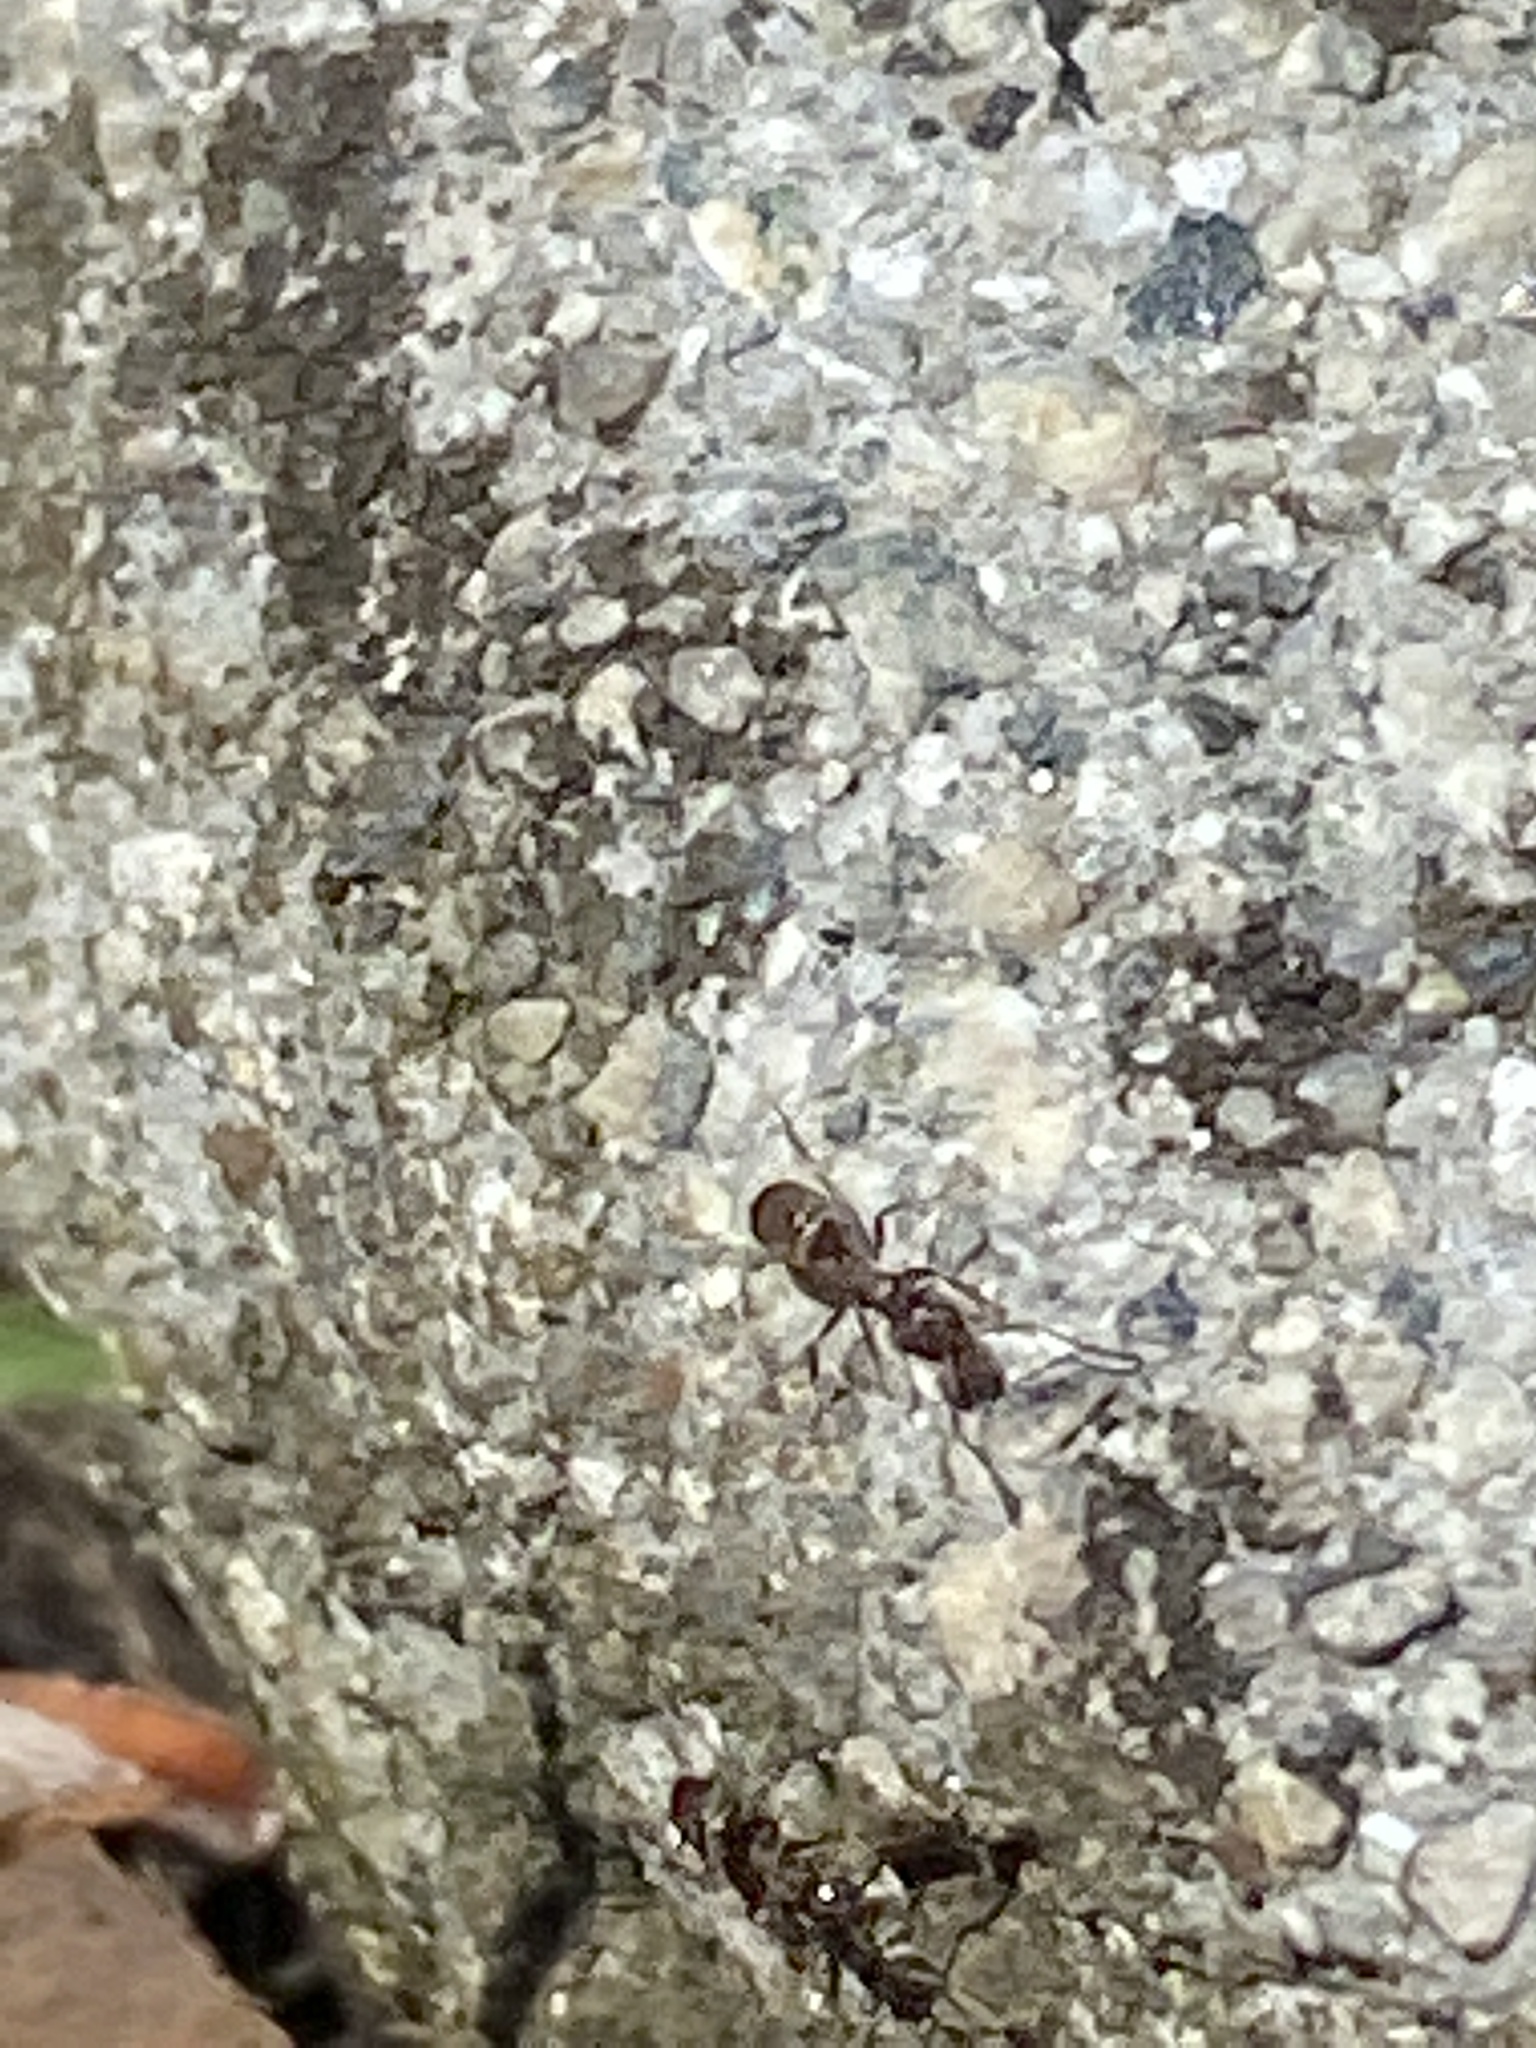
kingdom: Animalia
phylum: Arthropoda
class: Insecta
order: Hymenoptera
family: Formicidae
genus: Linepithema
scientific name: Linepithema humile
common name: Argentine ant
